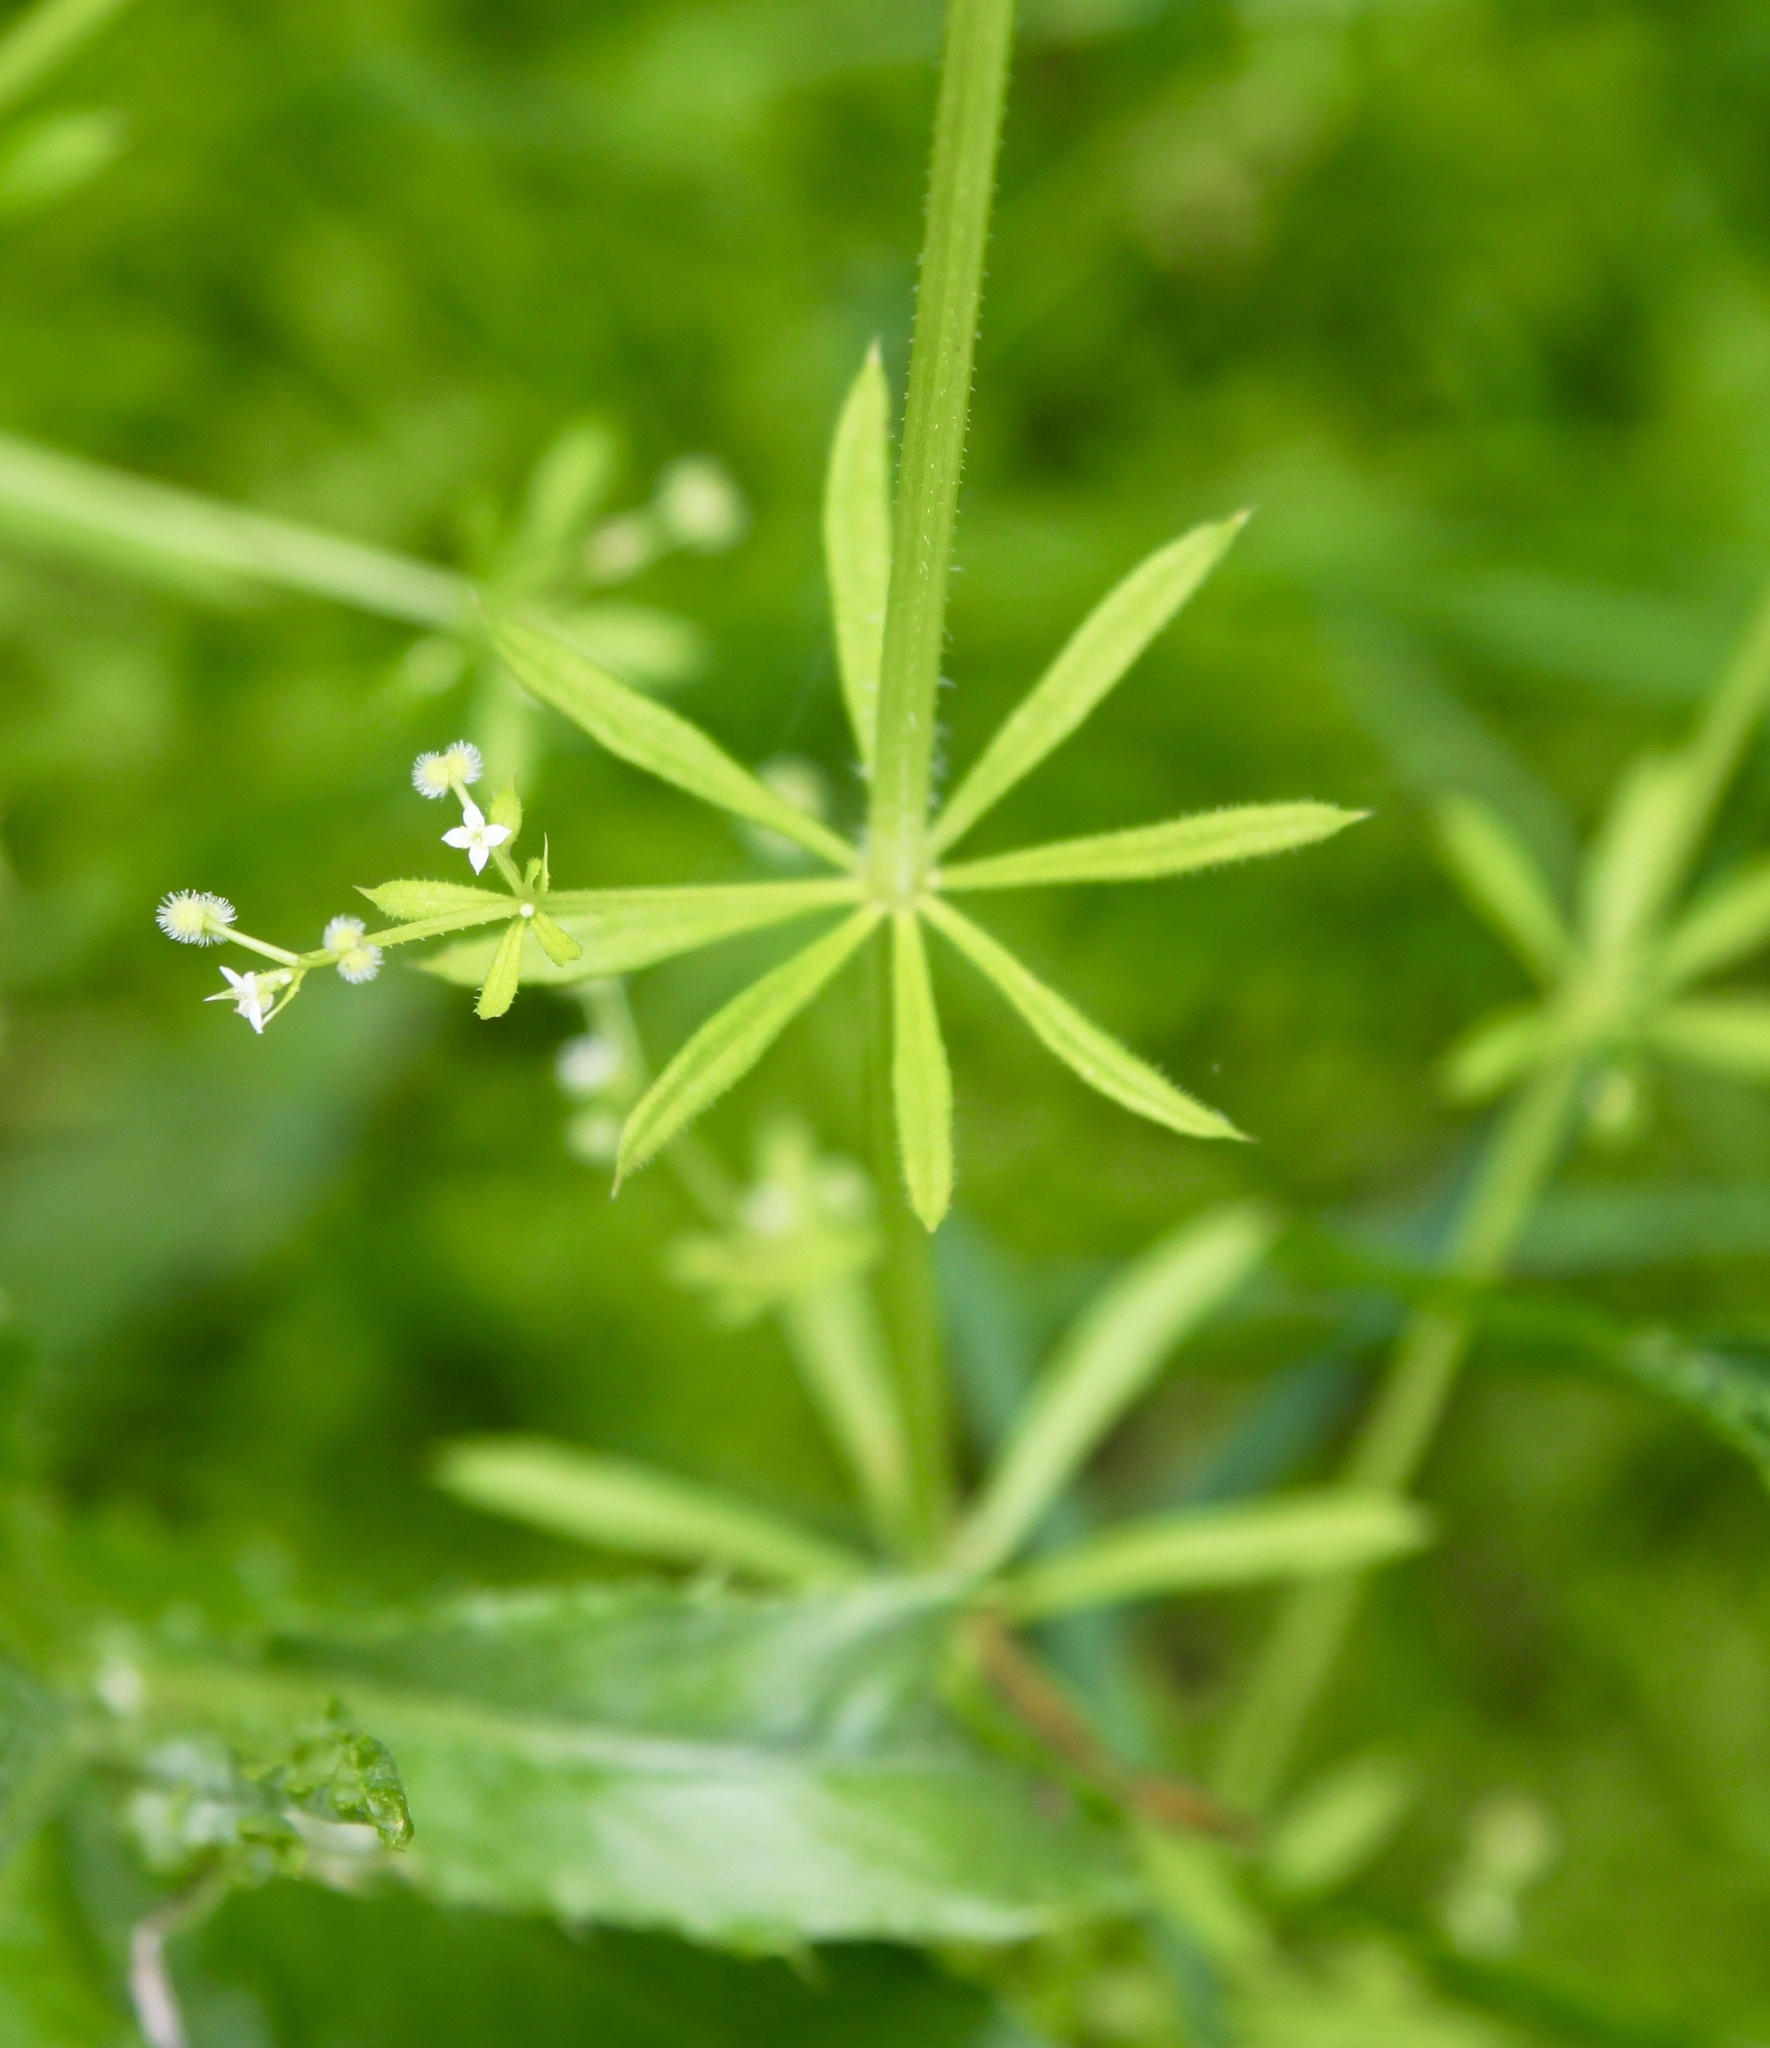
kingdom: Plantae
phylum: Tracheophyta
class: Magnoliopsida
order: Gentianales
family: Rubiaceae
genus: Galium
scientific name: Galium aparine
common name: Cleavers
